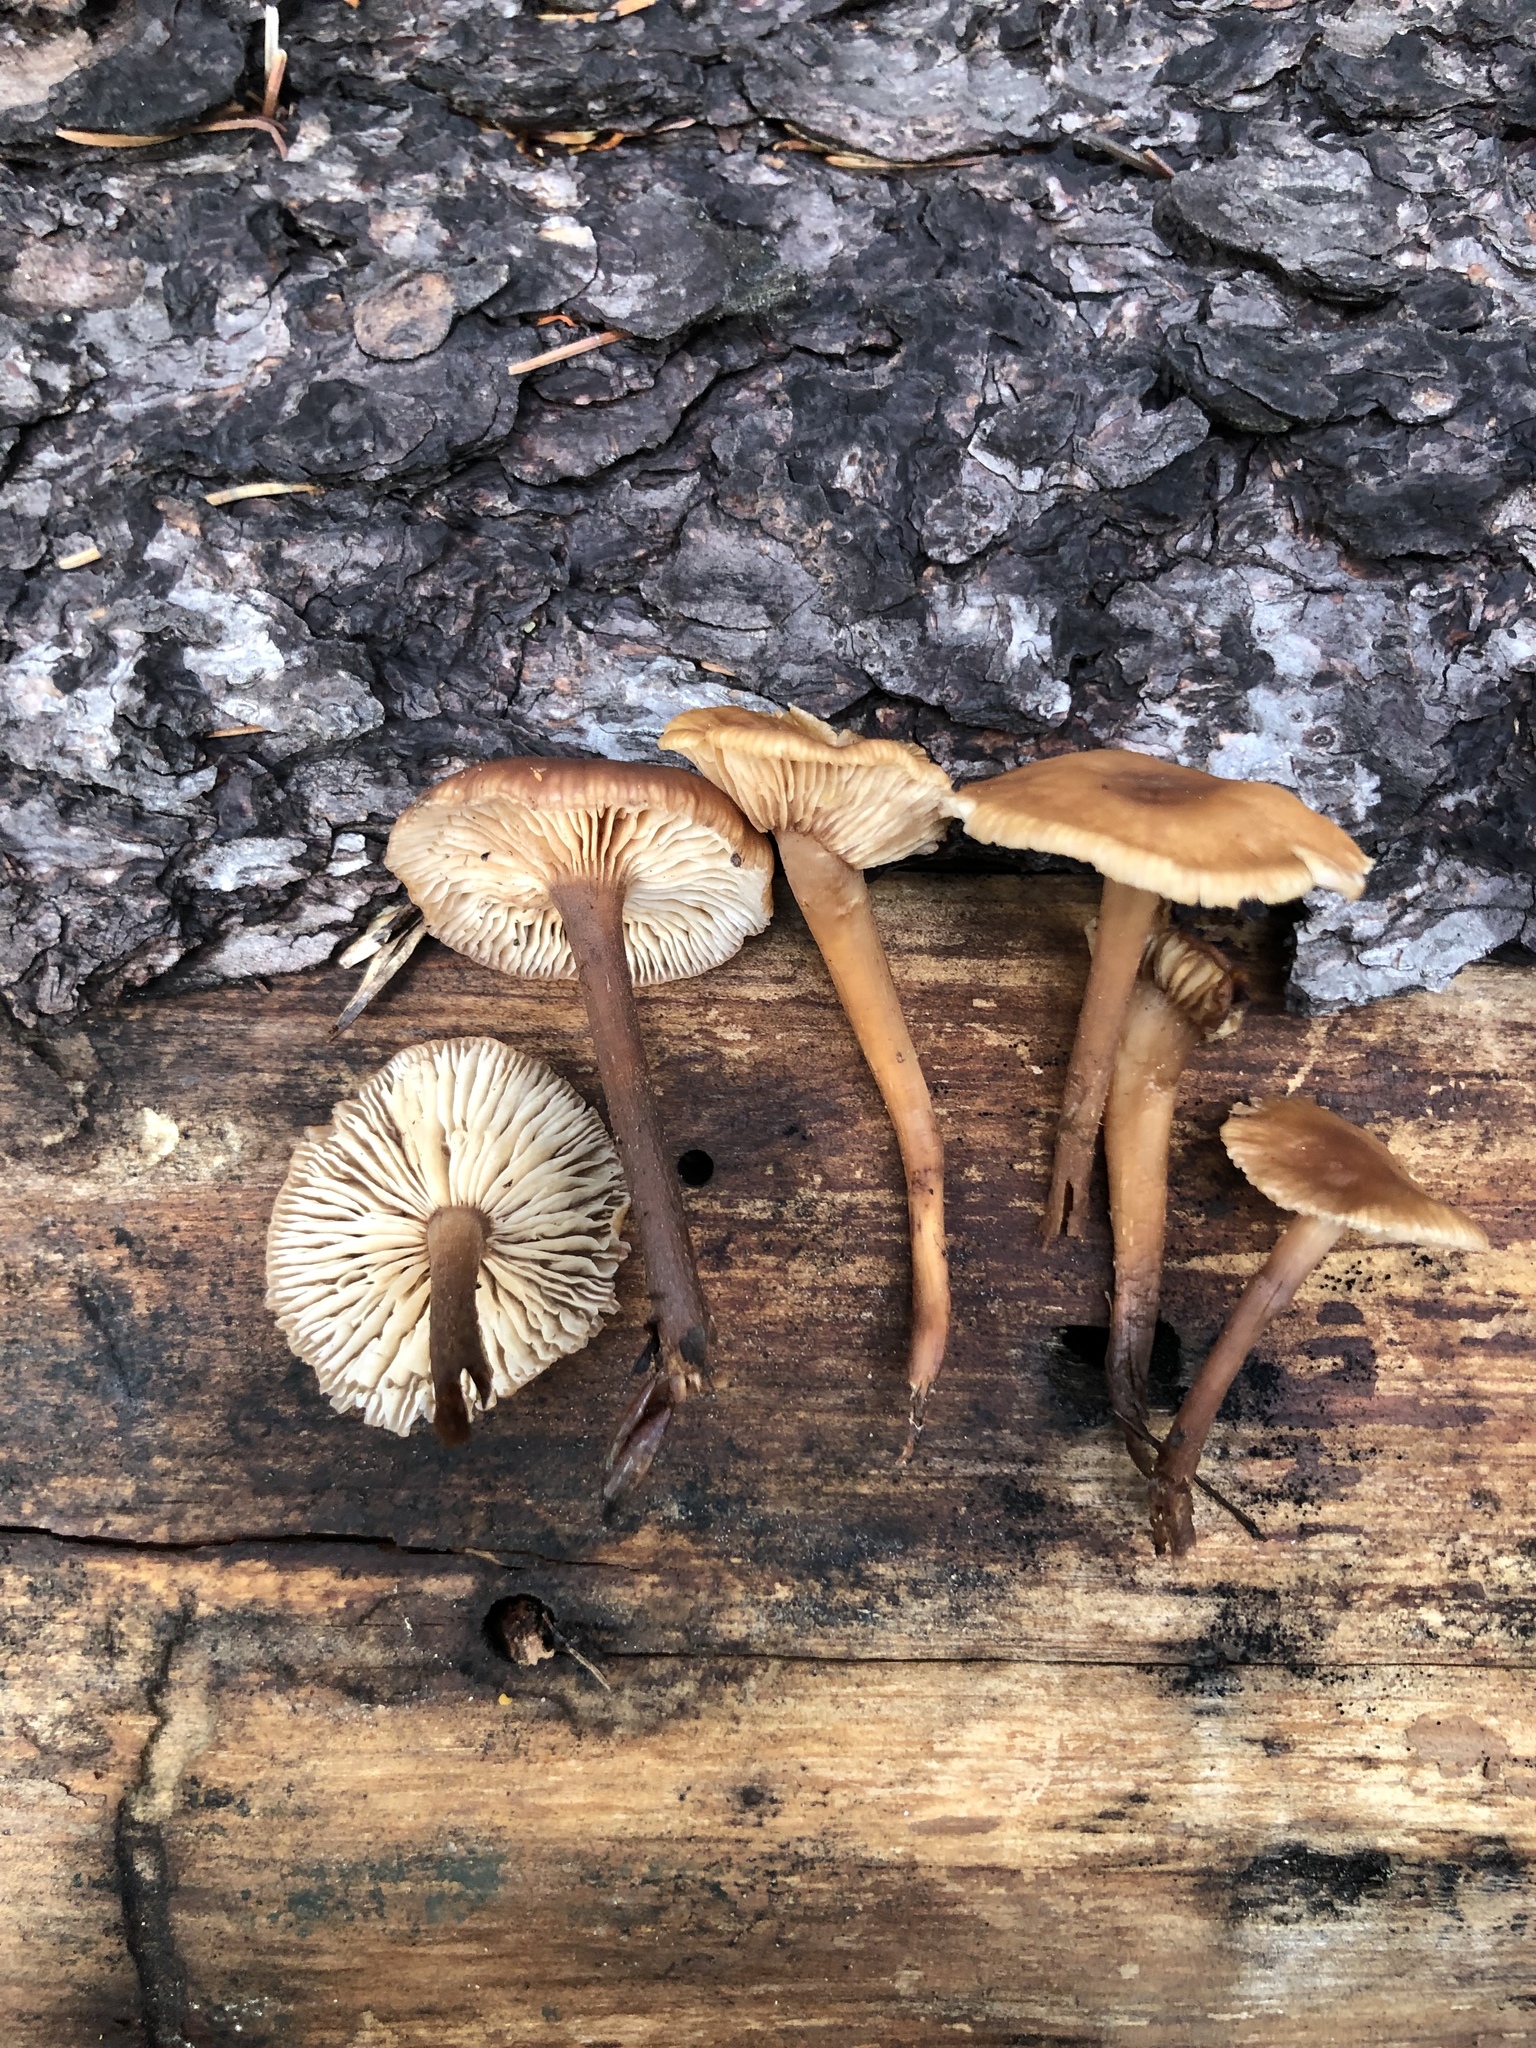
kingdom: Fungi
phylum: Basidiomycota
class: Agaricomycetes
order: Agaricales
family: Omphalotaceae
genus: Gymnopus
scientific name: Gymnopus erythropus
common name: Redleg toughshank
